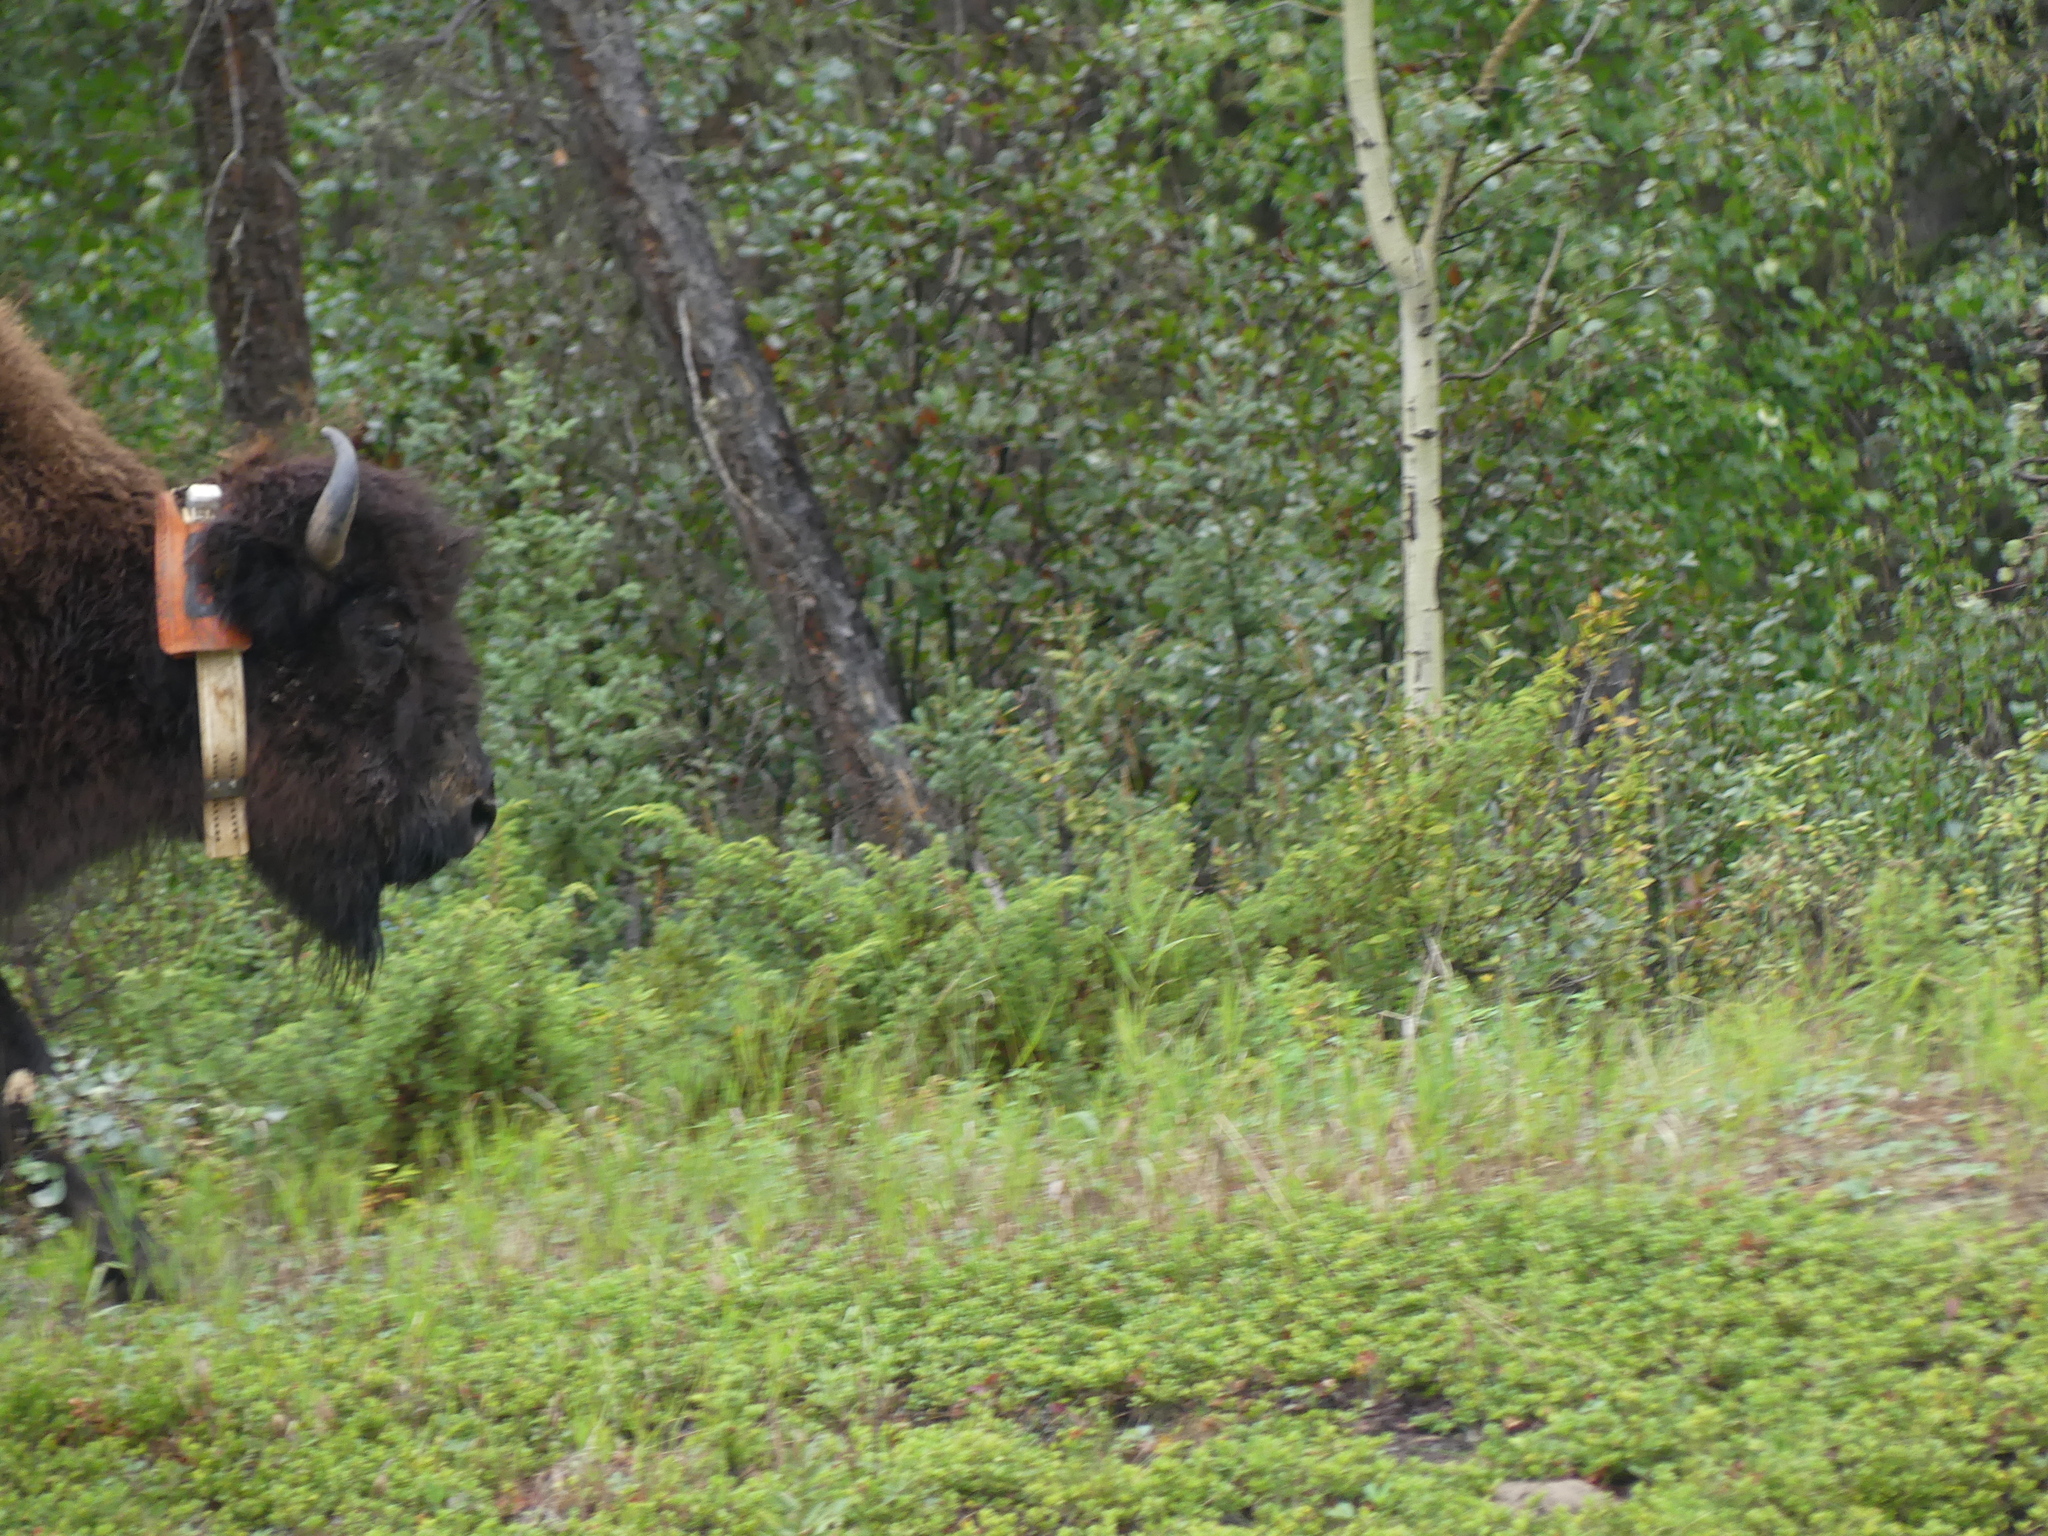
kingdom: Animalia
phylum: Chordata
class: Mammalia
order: Artiodactyla
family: Bovidae
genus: Bison
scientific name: Bison bison
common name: American bison
